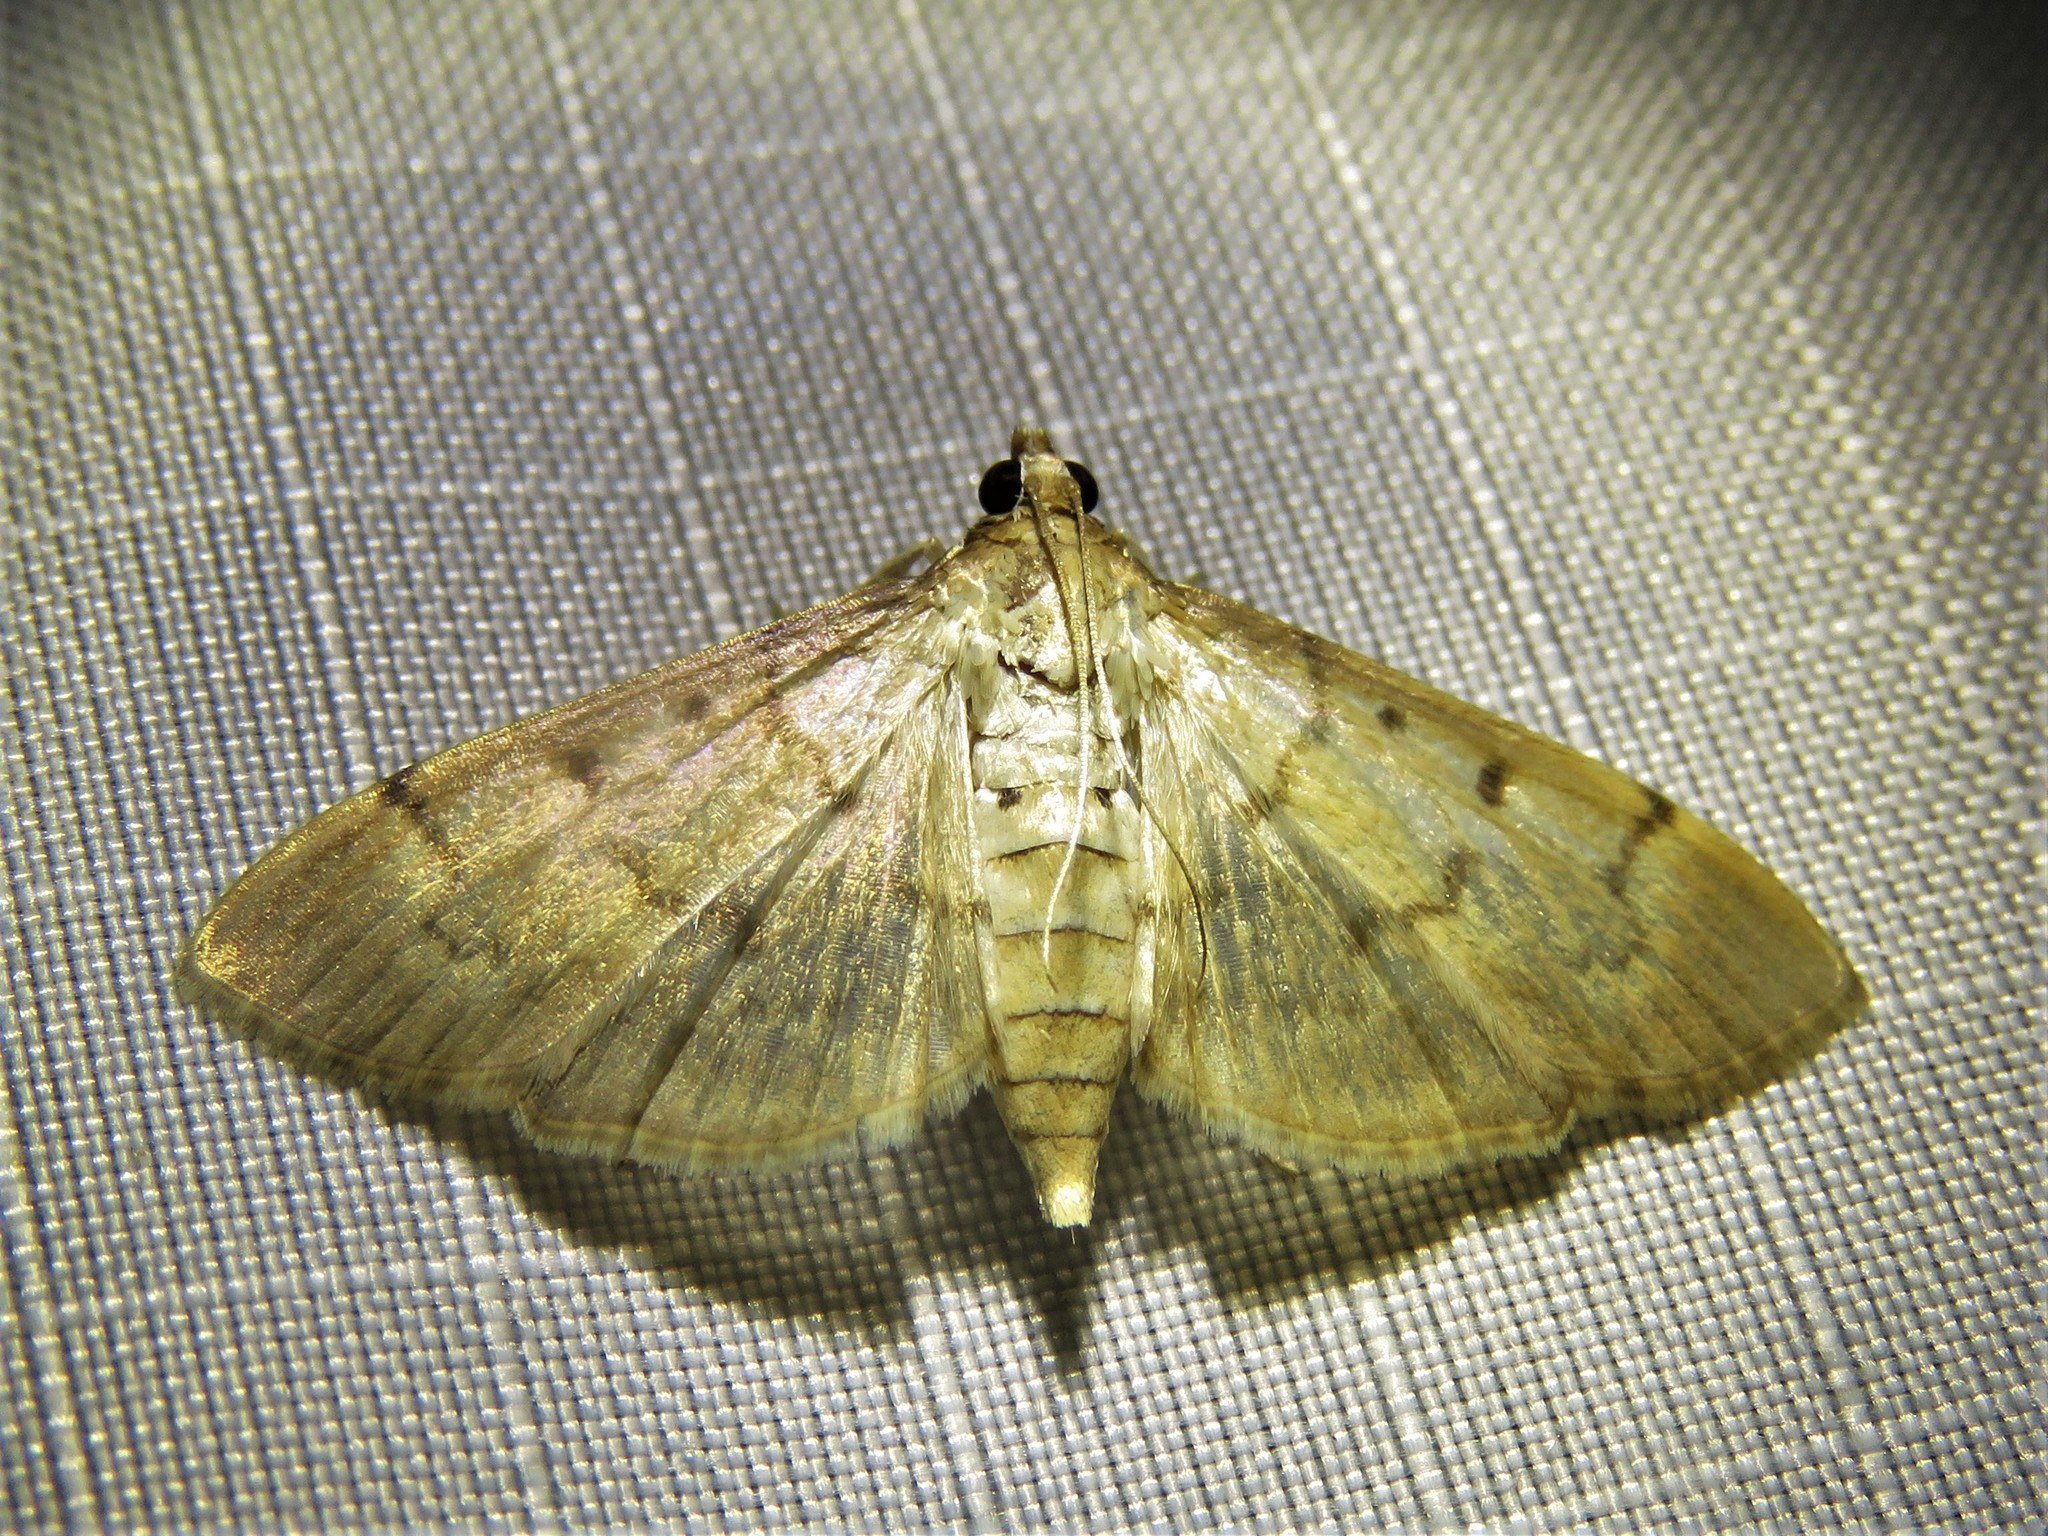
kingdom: Animalia
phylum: Arthropoda
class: Insecta
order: Lepidoptera
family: Crambidae
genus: Herpetogramma
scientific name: Herpetogramma bipunctalis
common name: Southern beet webworm
